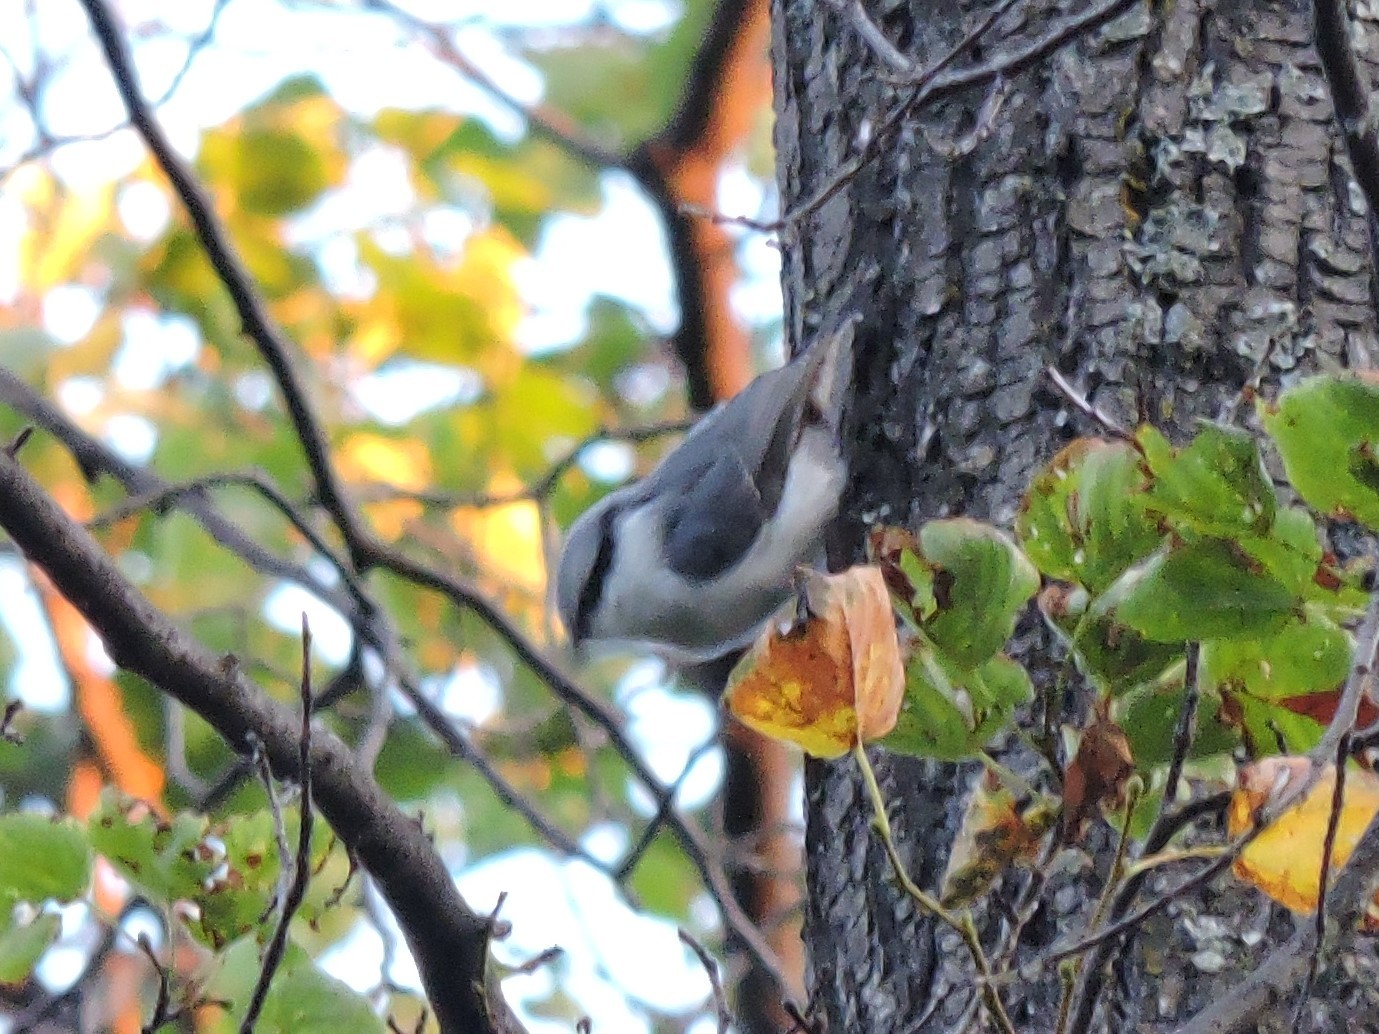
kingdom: Animalia
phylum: Chordata
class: Aves
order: Passeriformes
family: Sittidae
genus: Sitta
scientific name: Sitta europaea
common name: Eurasian nuthatch
